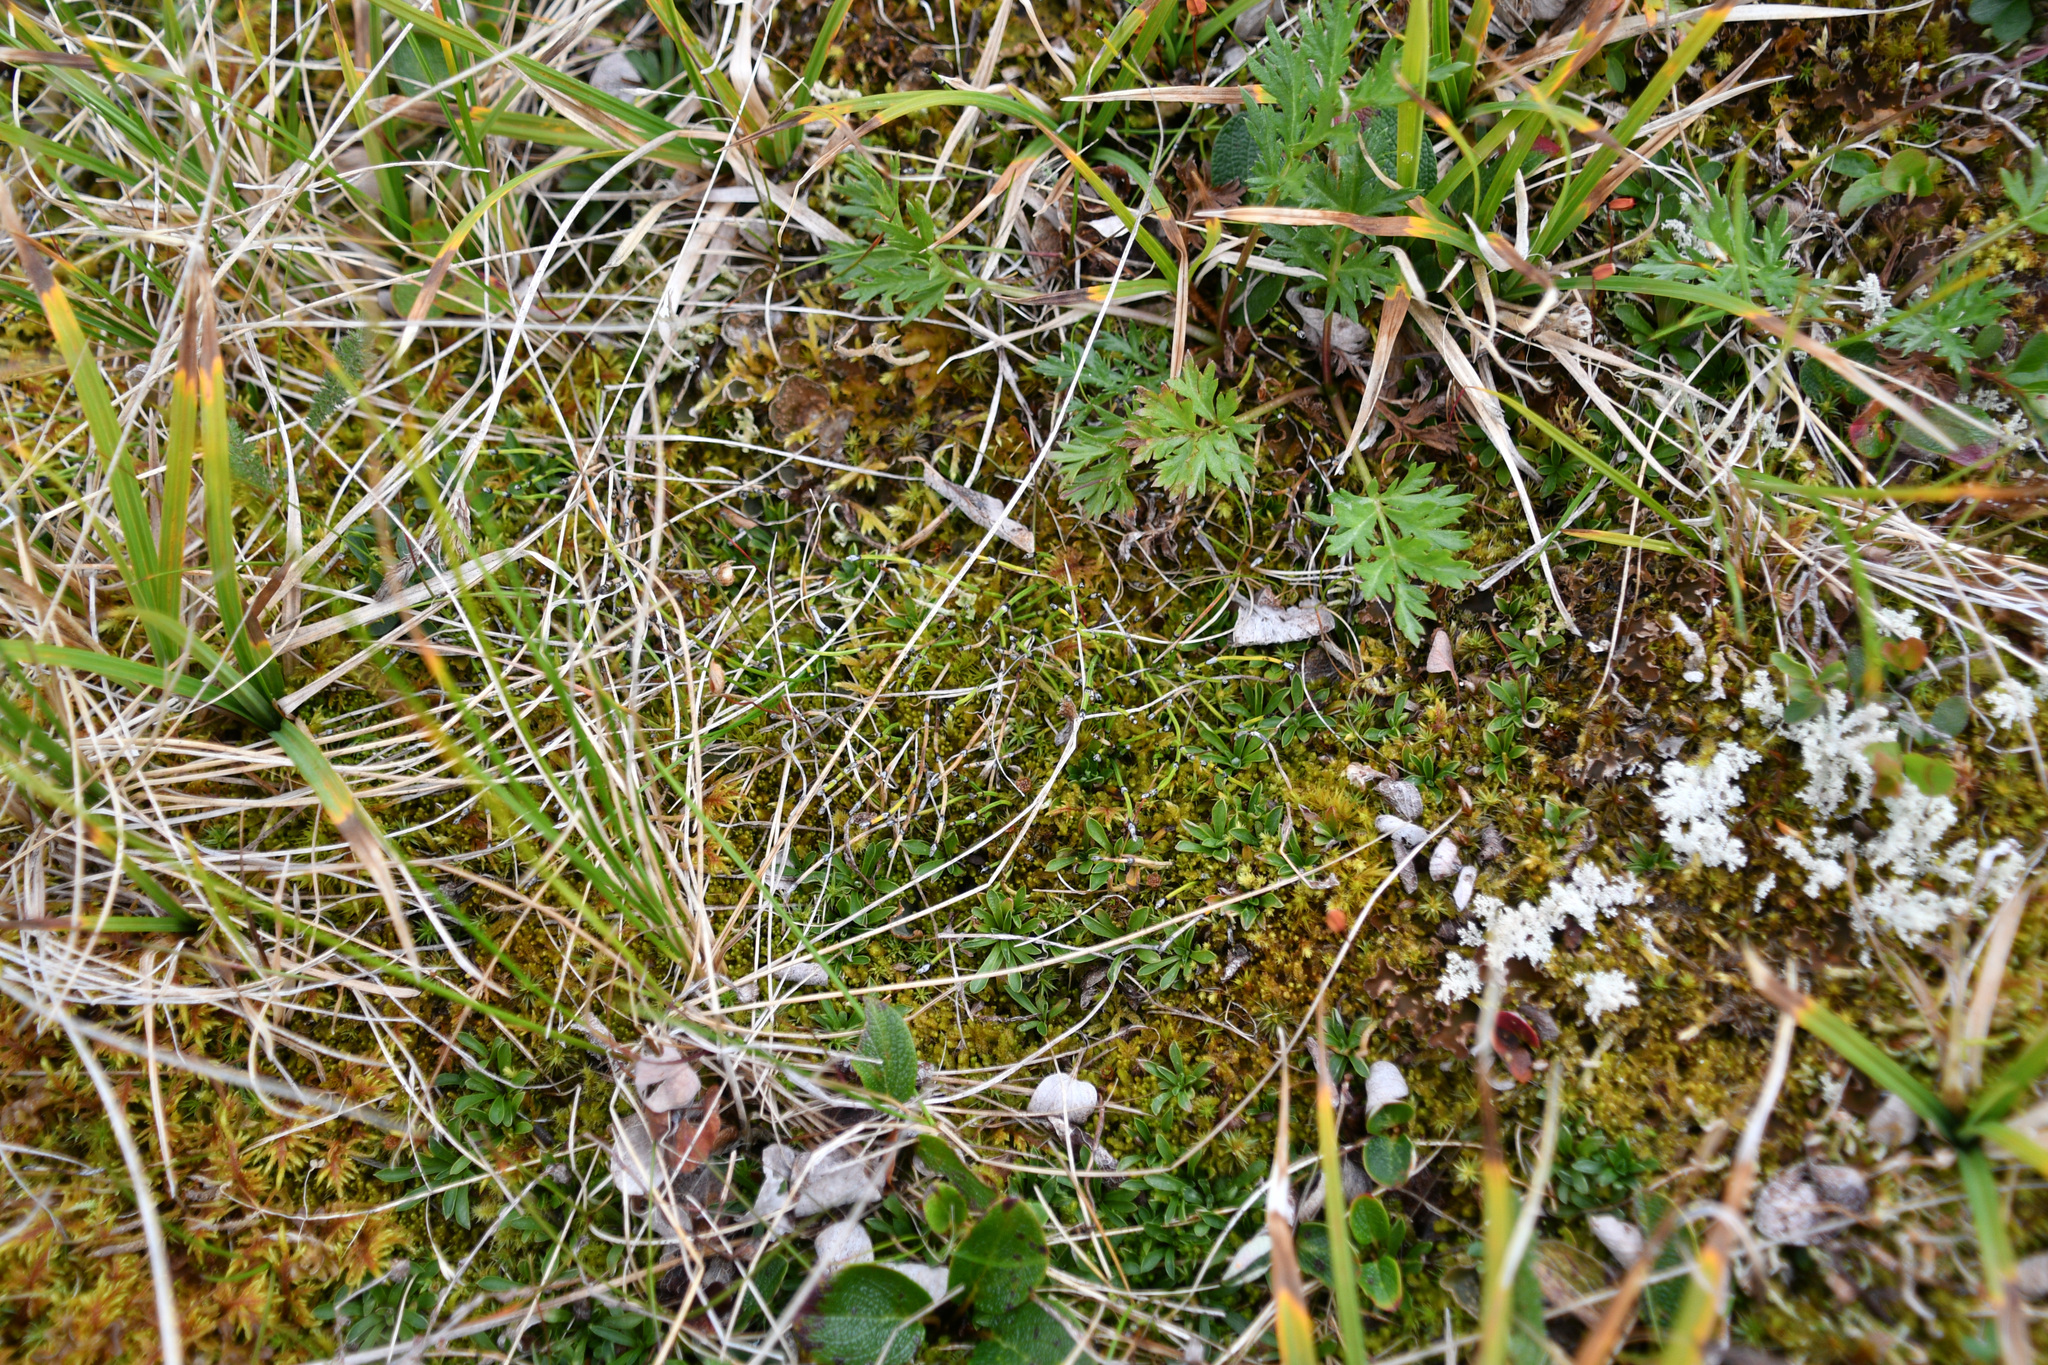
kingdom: Plantae
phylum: Tracheophyta
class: Polypodiopsida
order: Equisetales
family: Equisetaceae
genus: Equisetum
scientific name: Equisetum scirpoides
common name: Delicate horsetail
